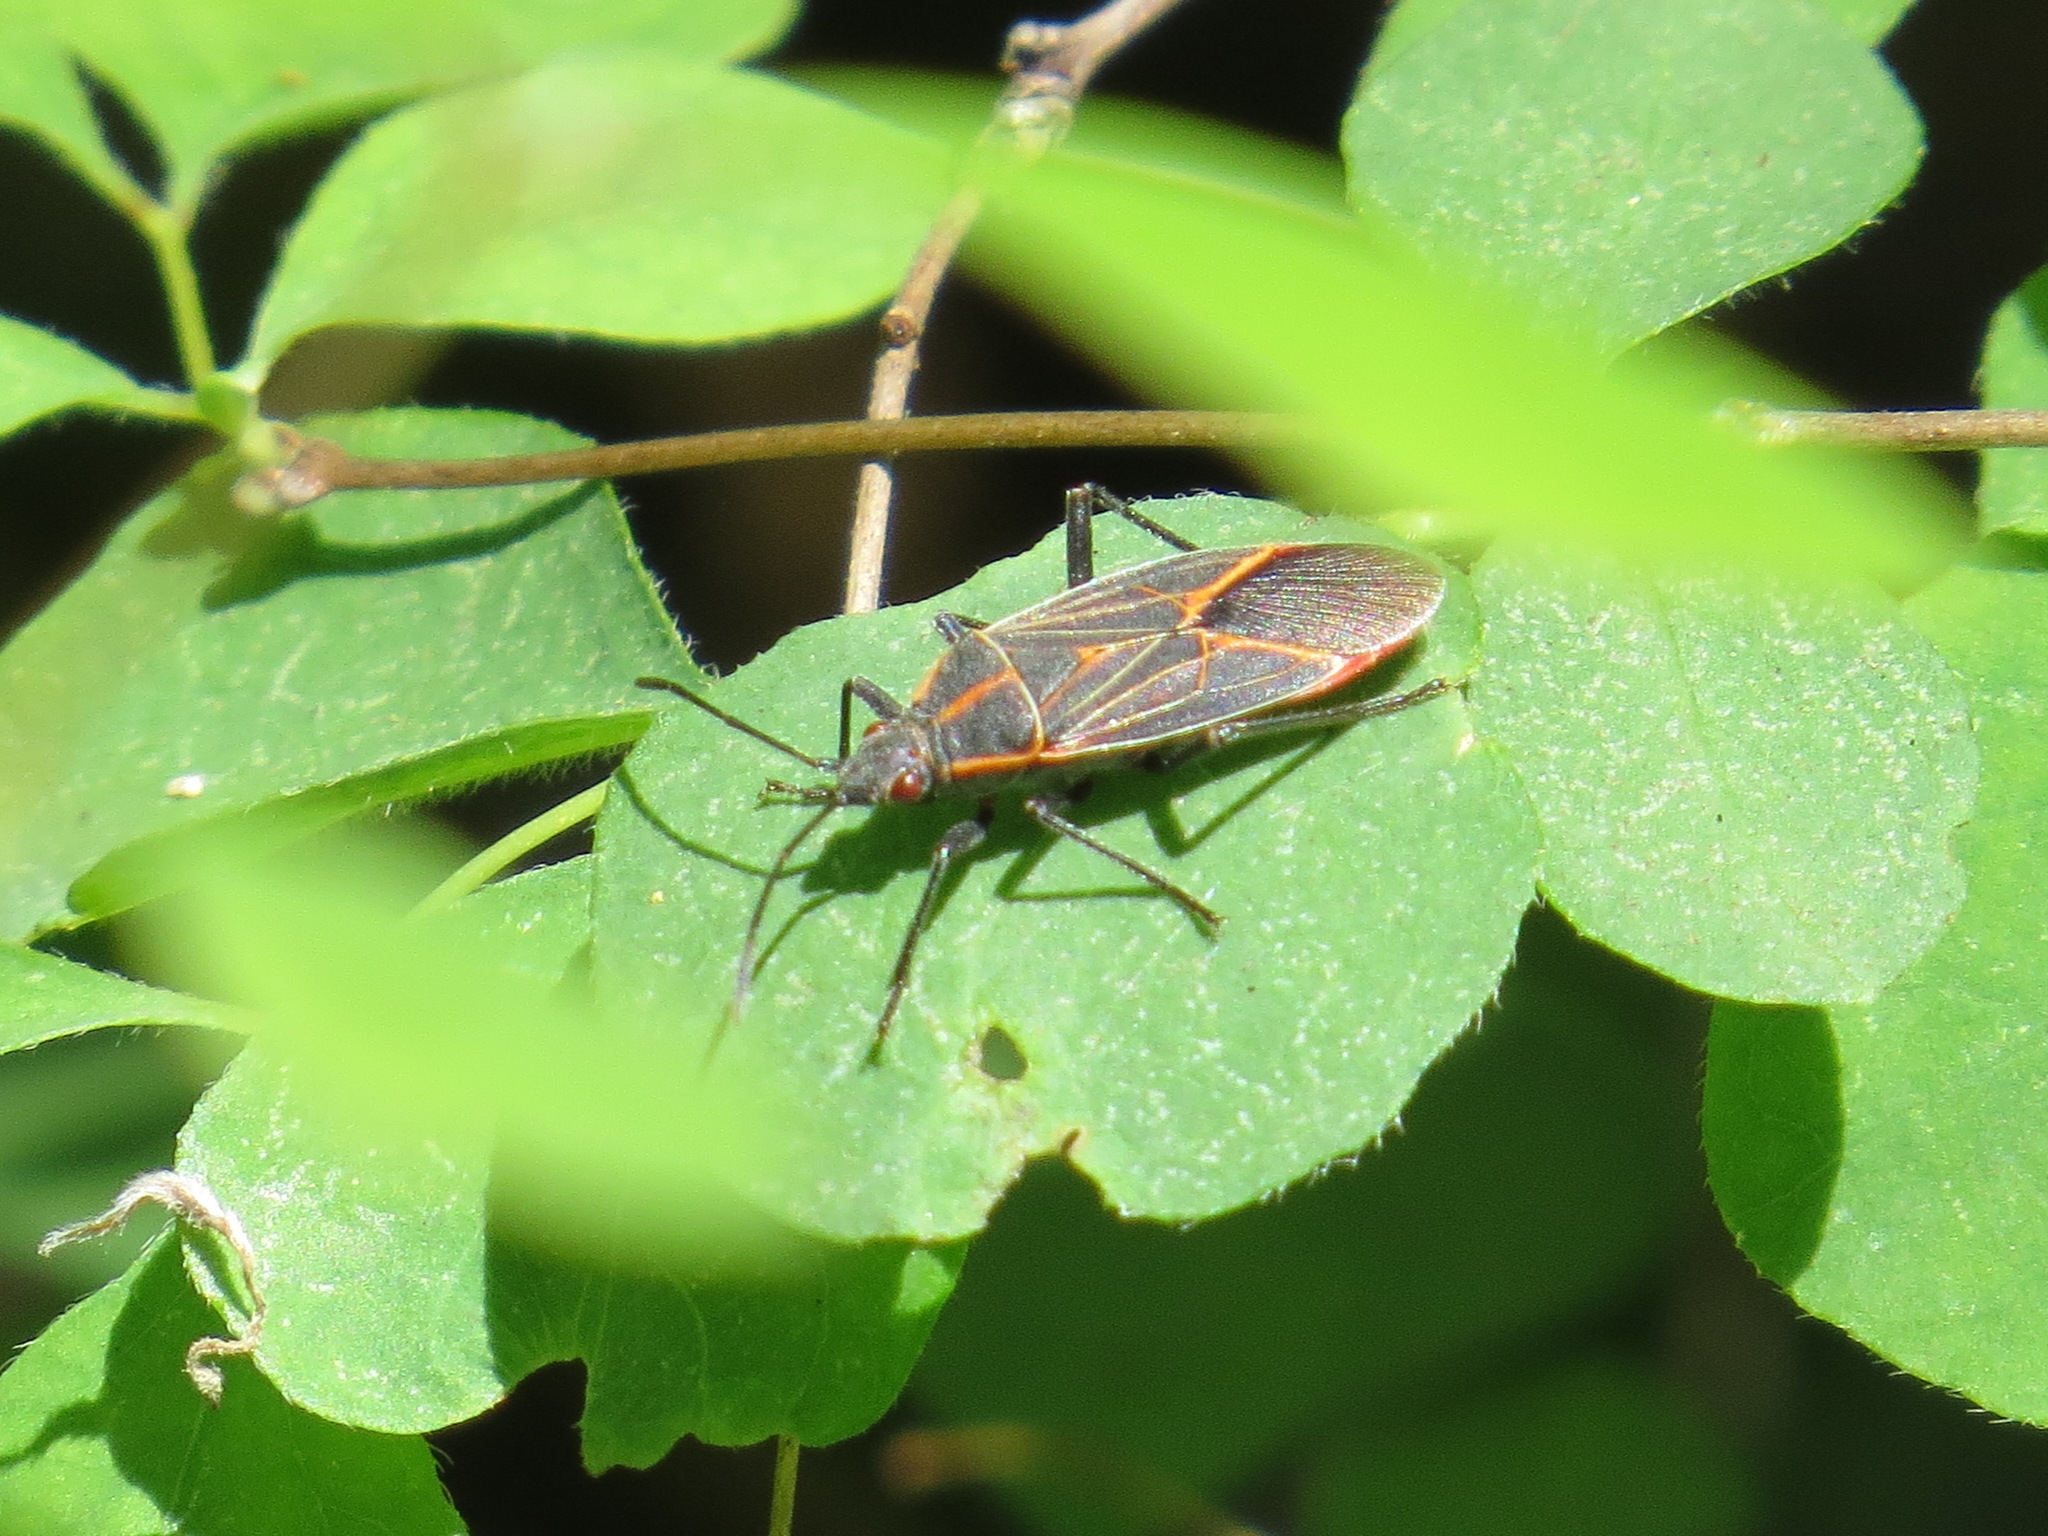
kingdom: Animalia
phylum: Arthropoda
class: Insecta
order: Hemiptera
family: Rhopalidae
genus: Boisea
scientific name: Boisea rubrolineata
